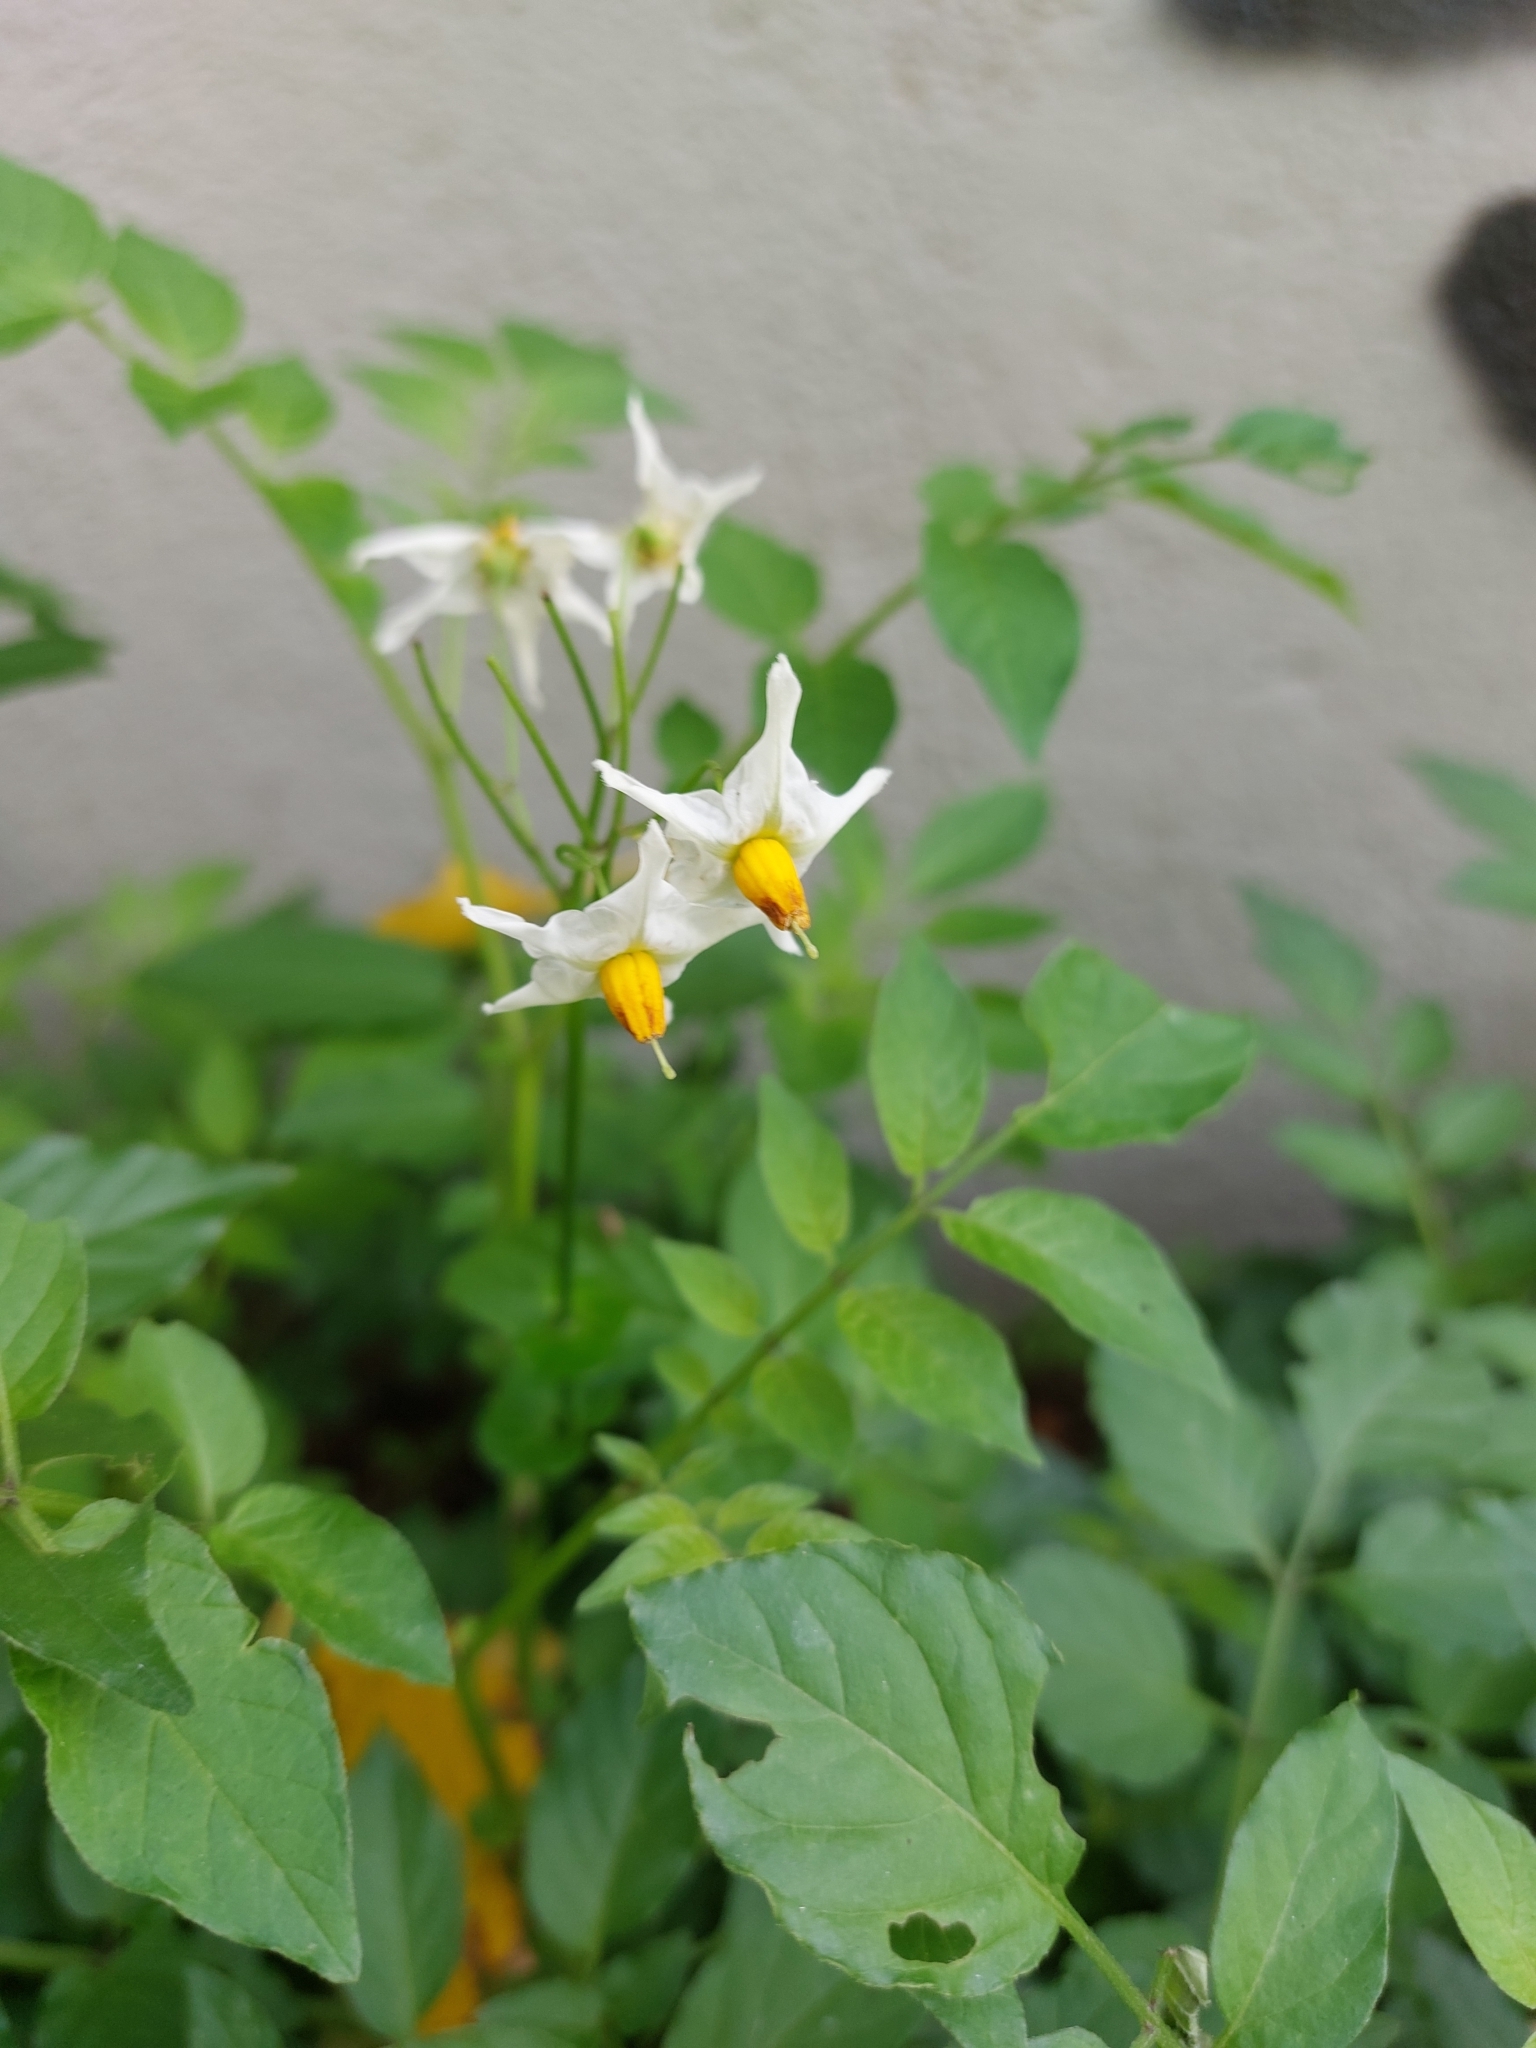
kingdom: Plantae
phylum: Tracheophyta
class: Magnoliopsida
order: Solanales
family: Solanaceae
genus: Solanum
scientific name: Solanum chacoense
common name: Chaco potato
